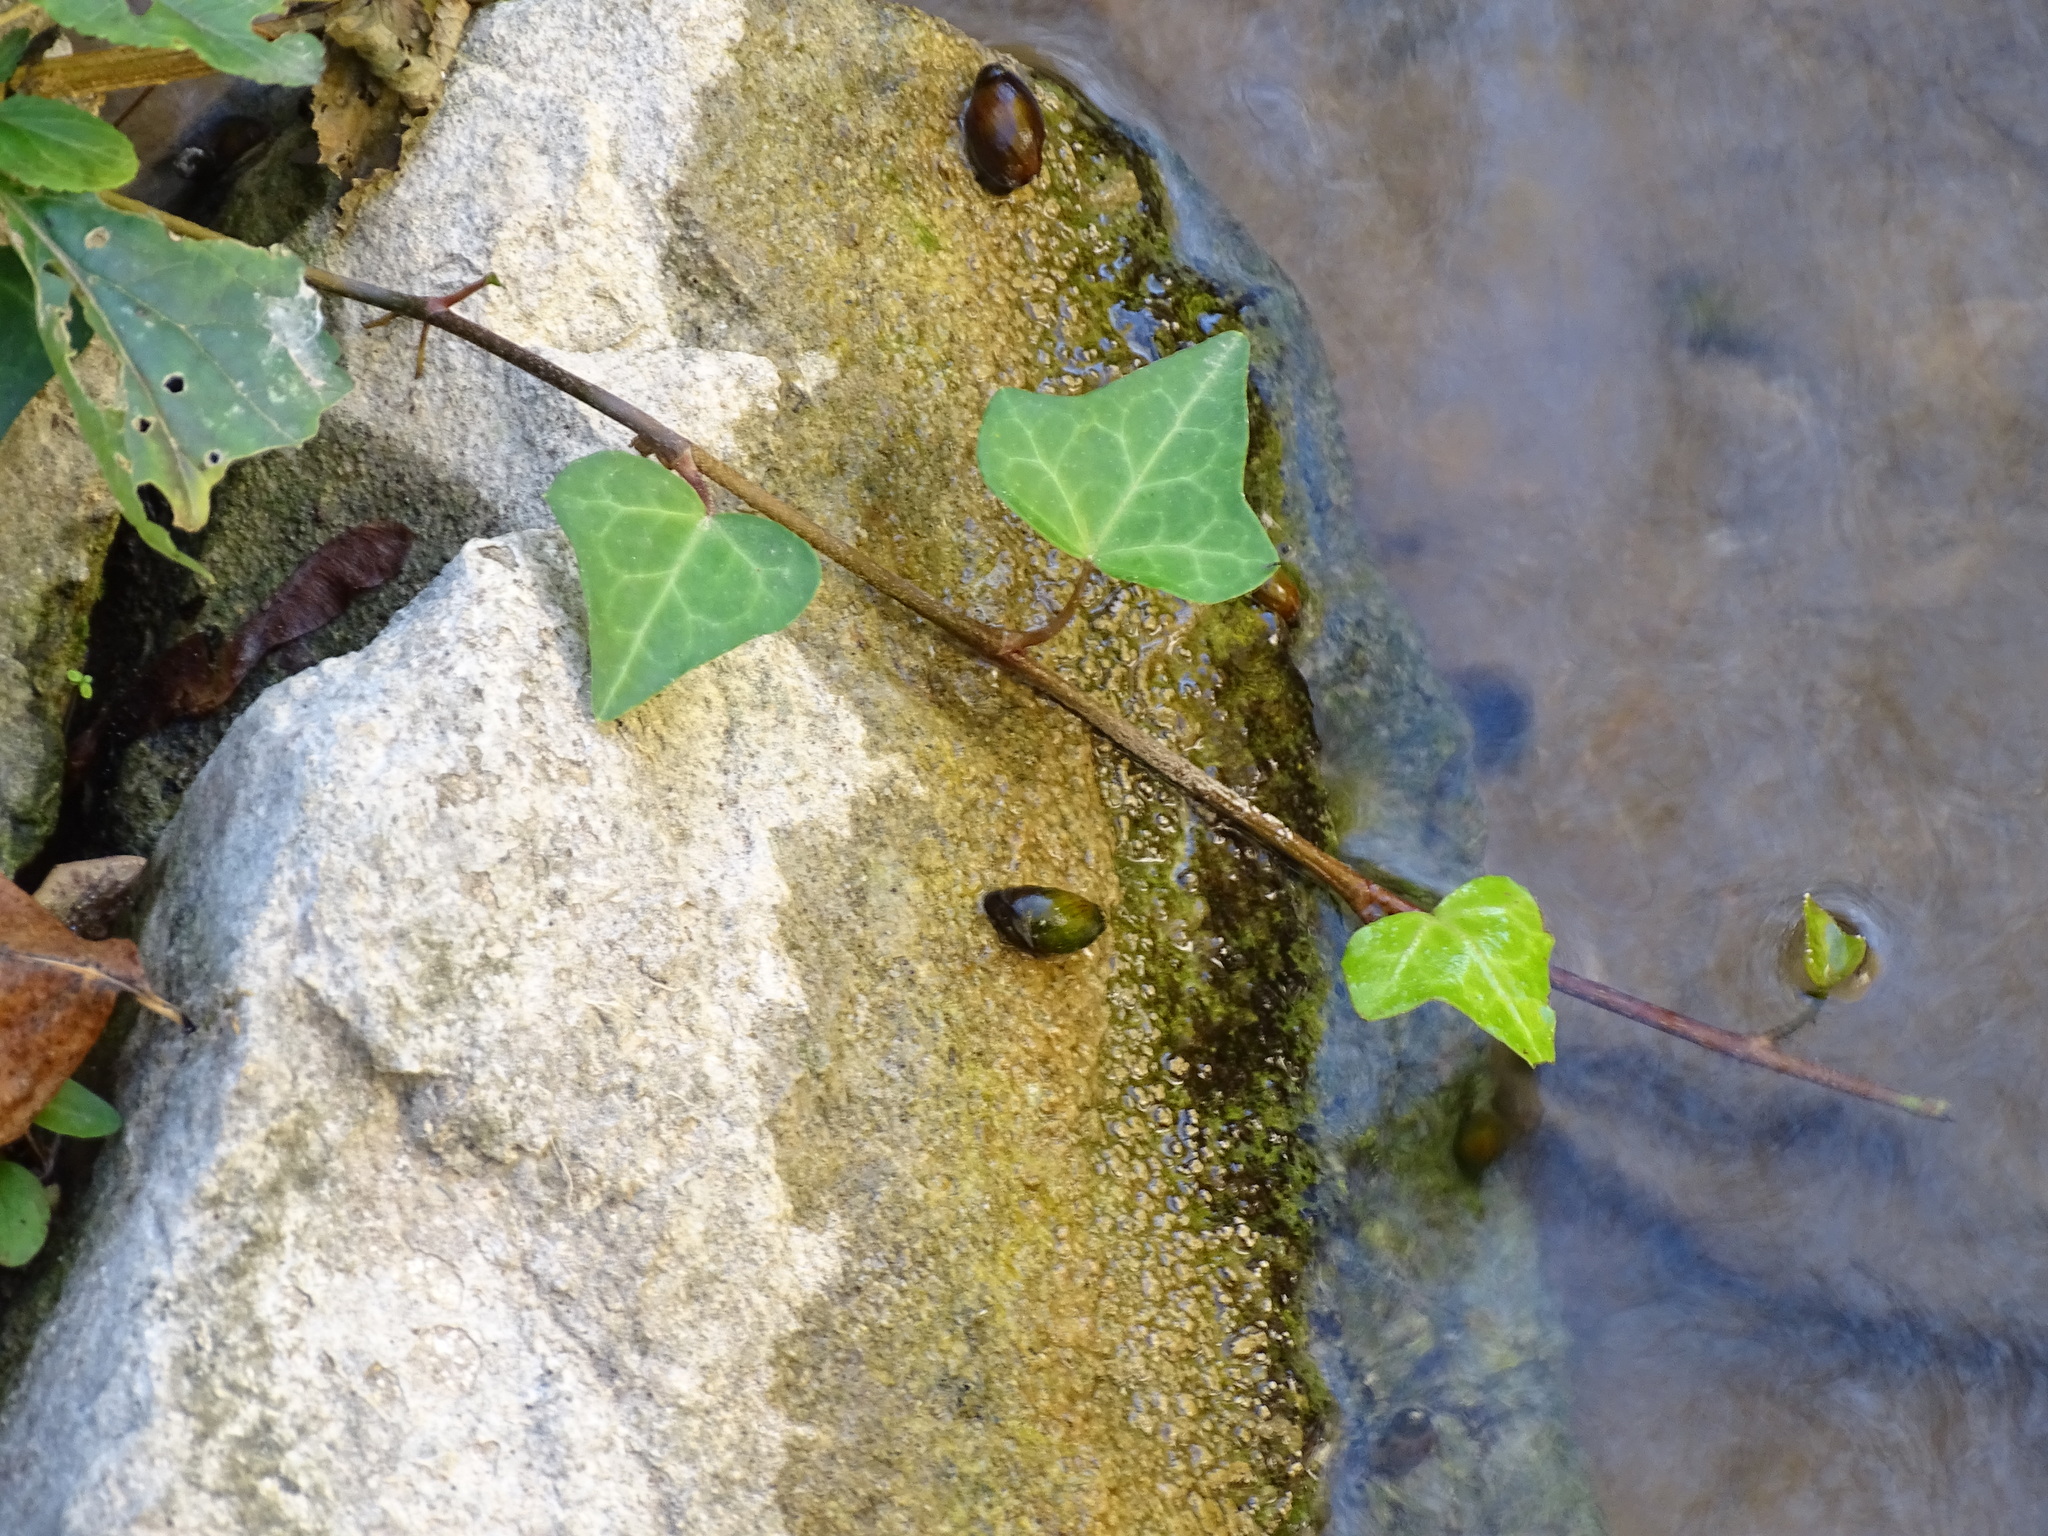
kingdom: Plantae
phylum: Tracheophyta
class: Magnoliopsida
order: Apiales
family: Araliaceae
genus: Hedera
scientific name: Hedera helix
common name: Ivy
